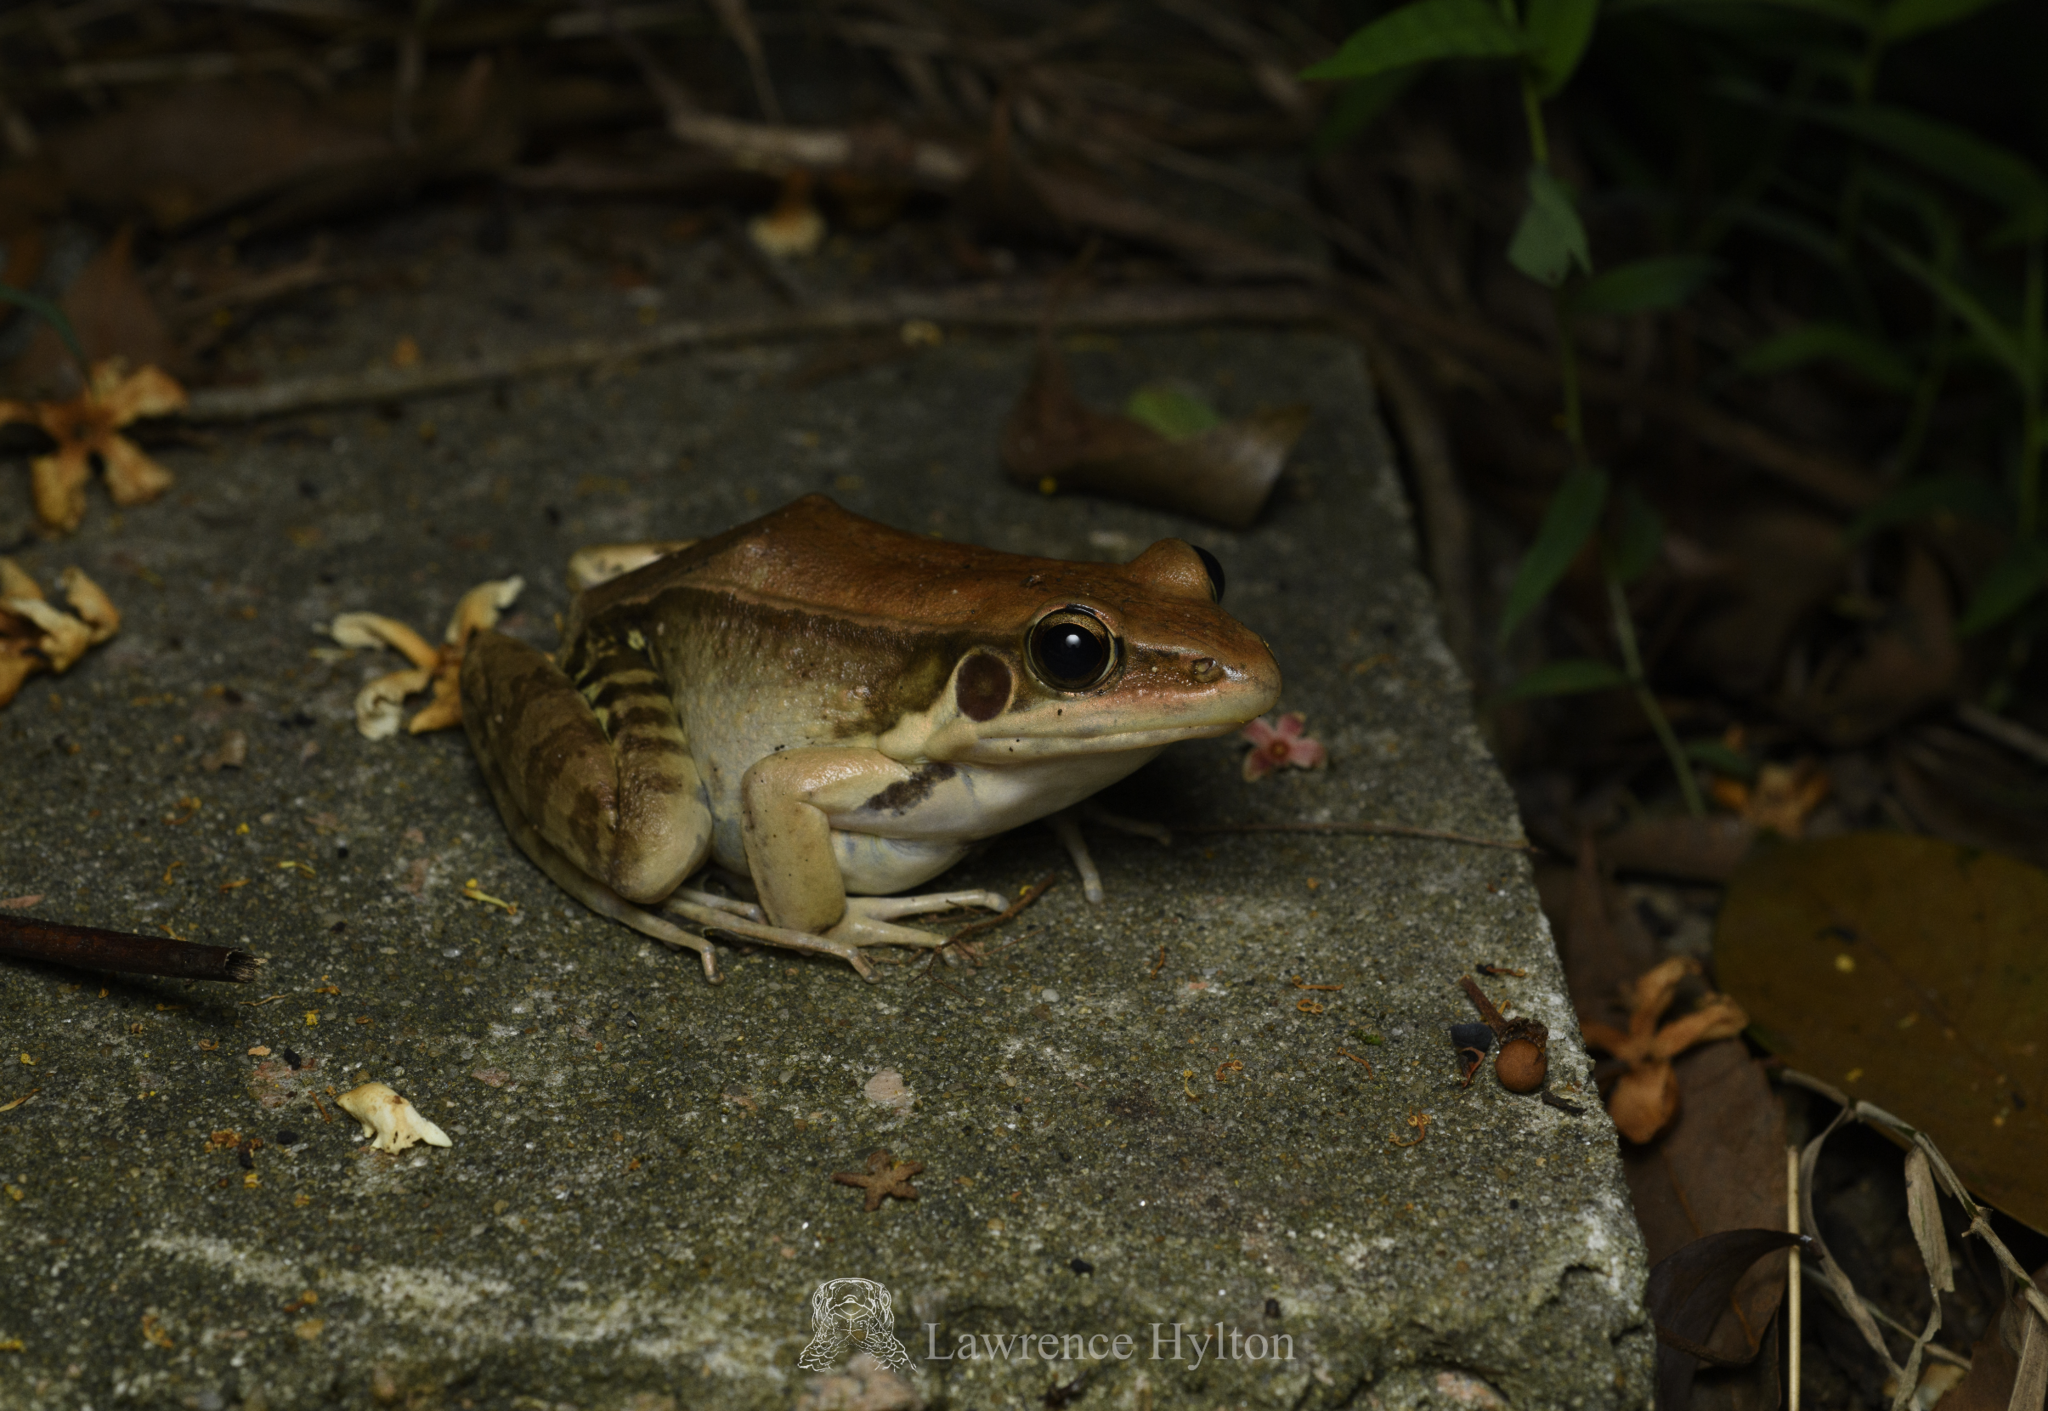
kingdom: Animalia
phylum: Chordata
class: Amphibia
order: Anura
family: Ranidae
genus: Sylvirana
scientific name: Sylvirana guentheri
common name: Guenther's amoy frog
